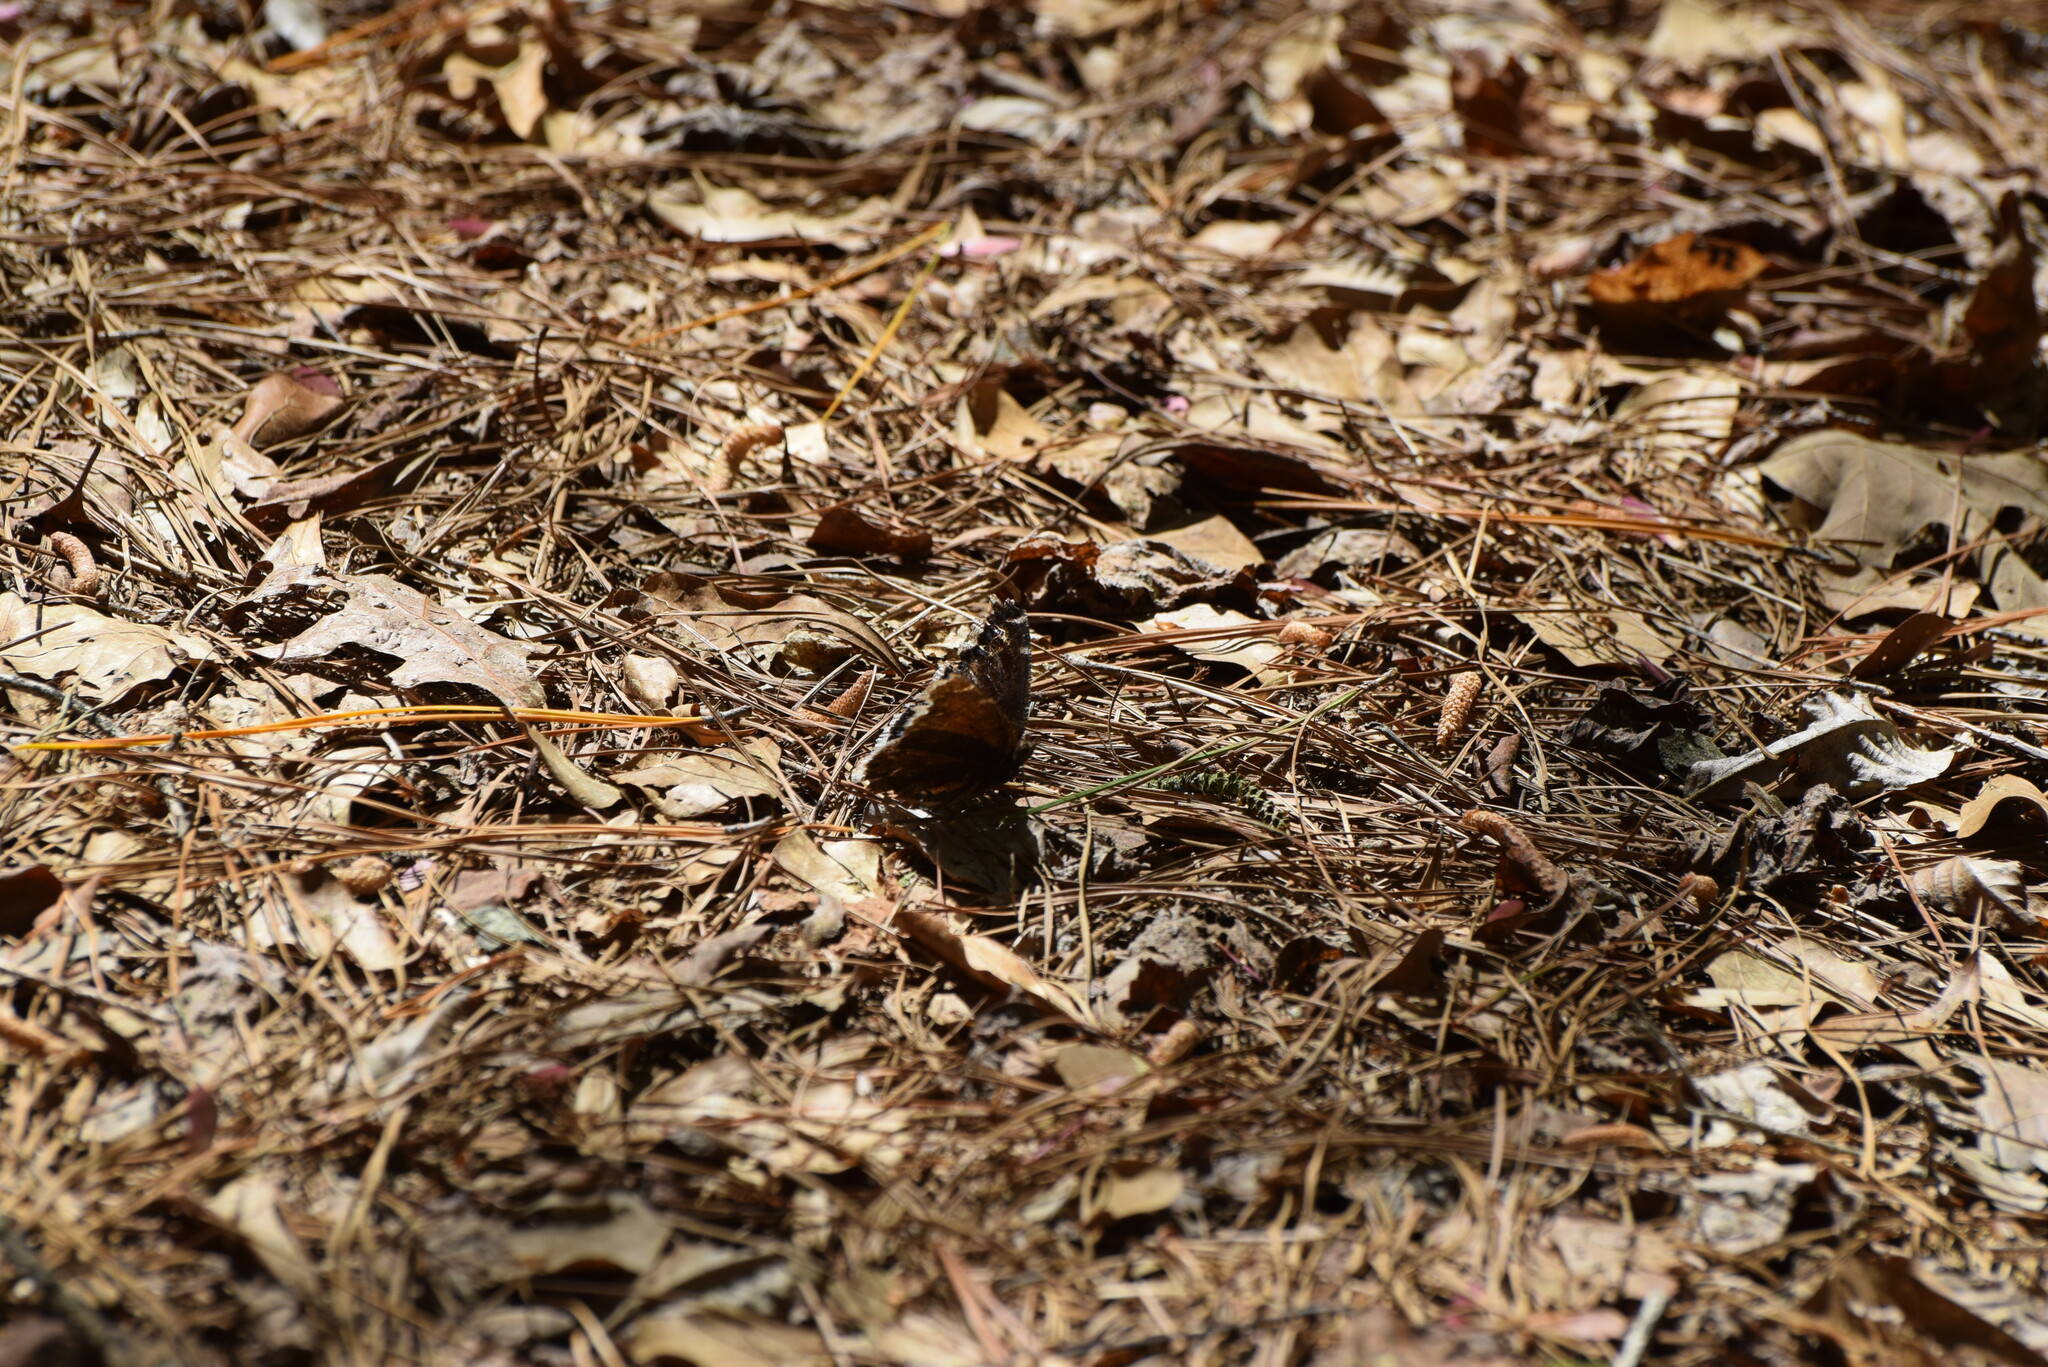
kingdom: Animalia
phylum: Arthropoda
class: Insecta
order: Lepidoptera
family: Nymphalidae
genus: Nymphalis
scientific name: Nymphalis antiopa
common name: Camberwell beauty
